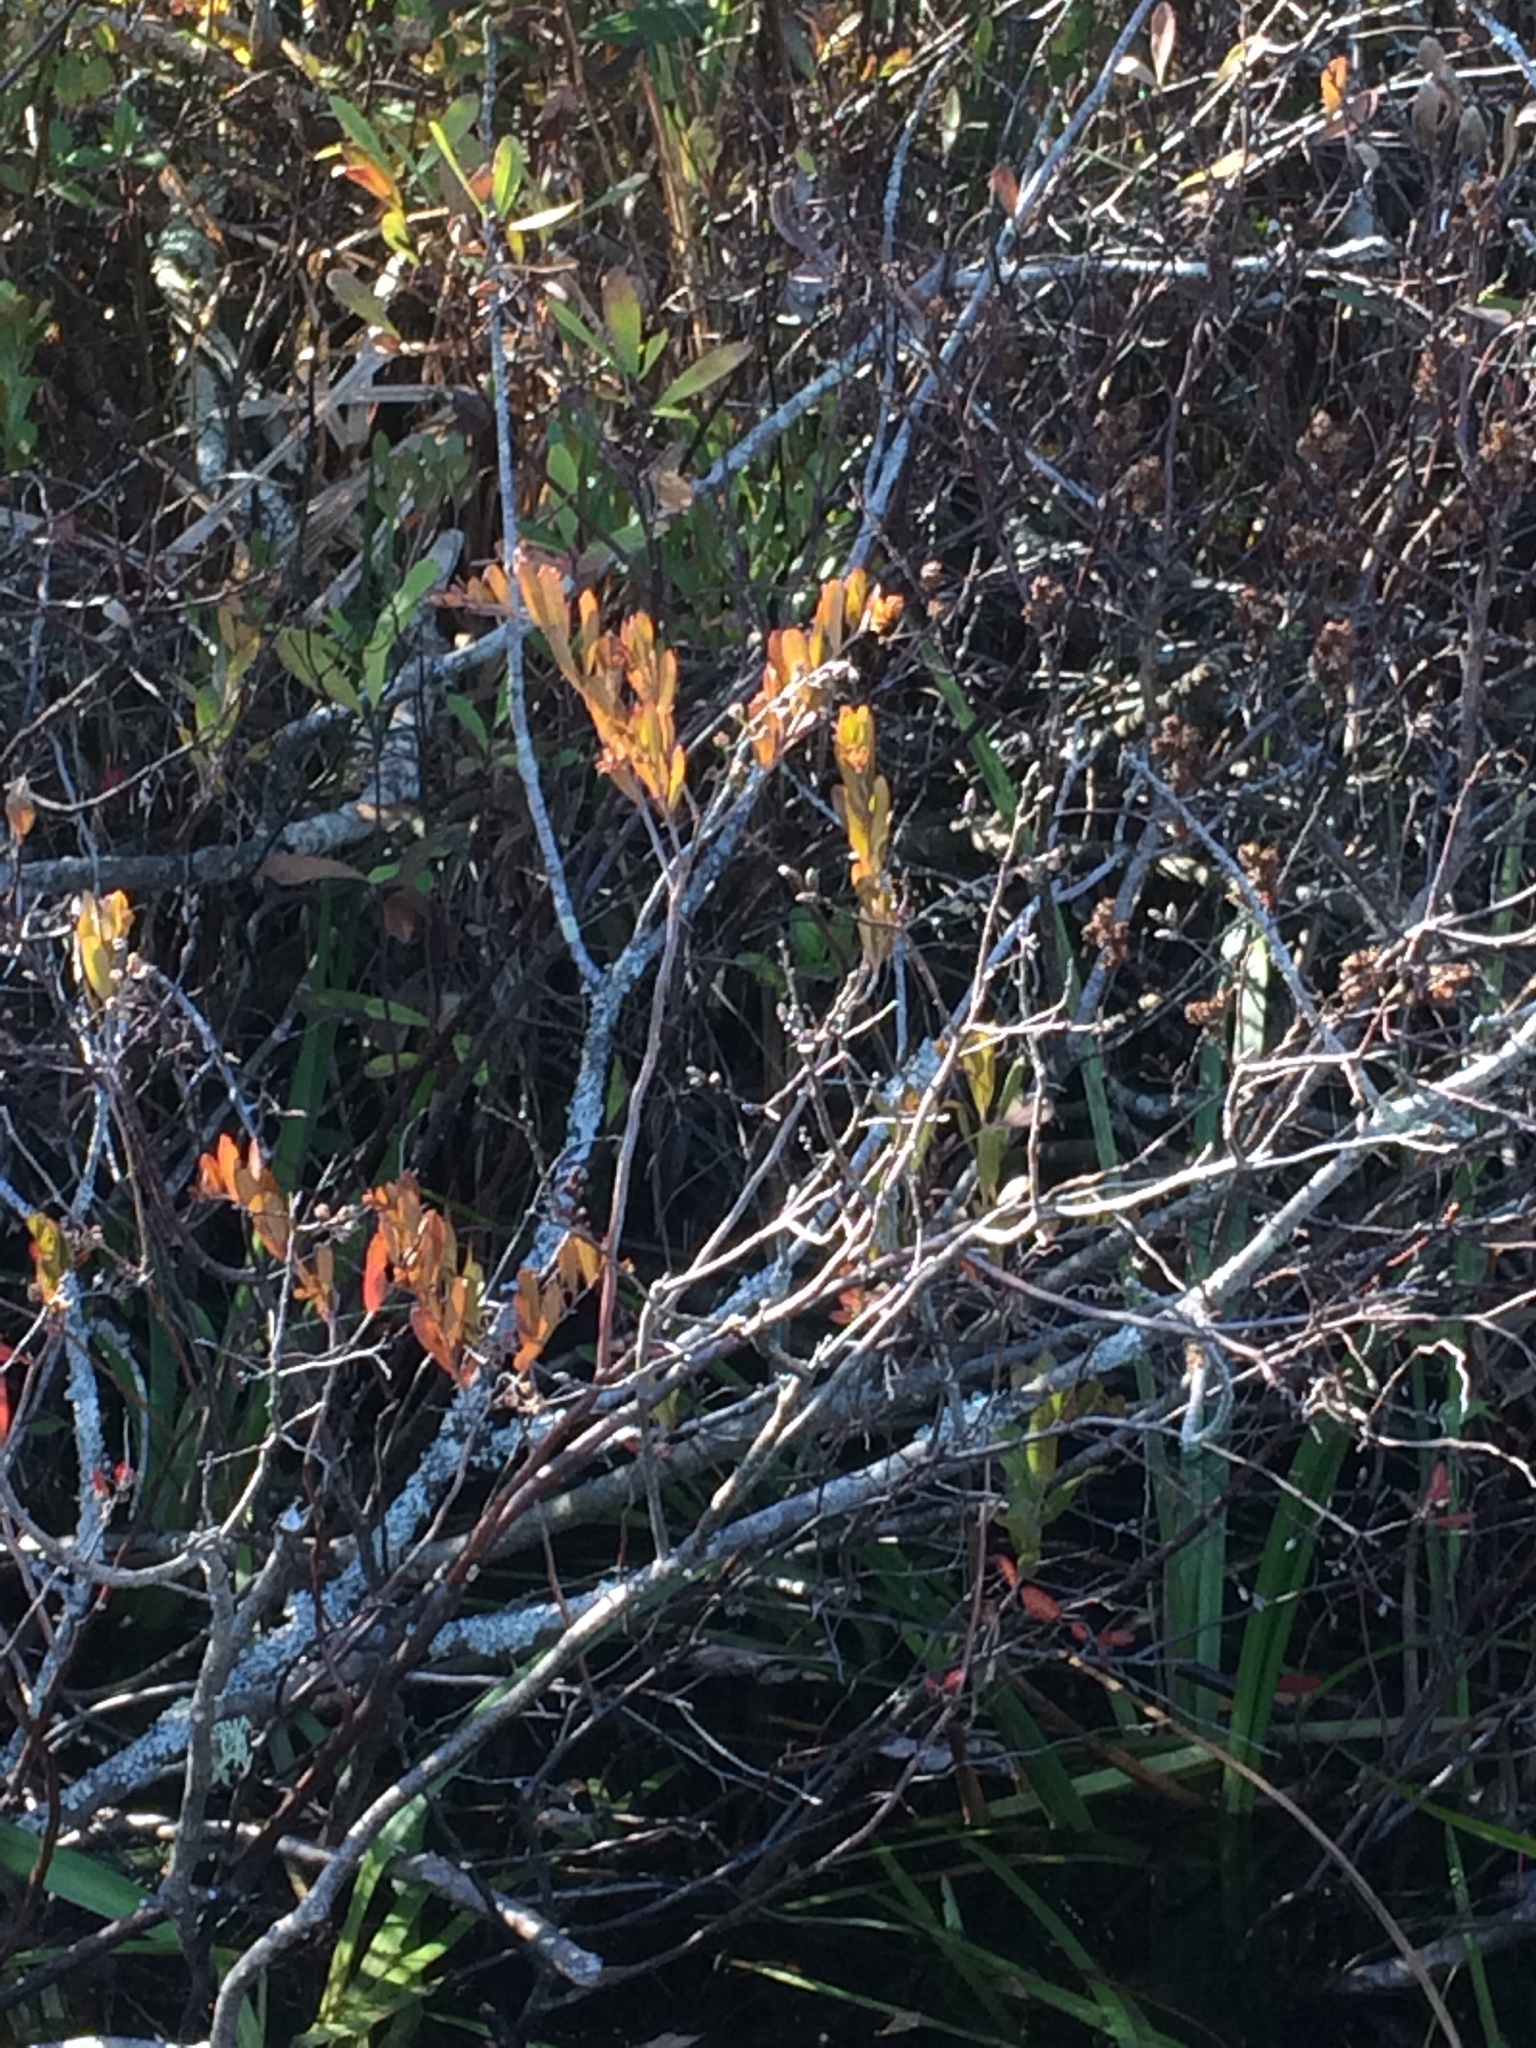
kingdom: Plantae
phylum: Tracheophyta
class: Magnoliopsida
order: Ericales
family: Ericaceae
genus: Chamaedaphne
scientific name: Chamaedaphne calyculata
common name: Leatherleaf
